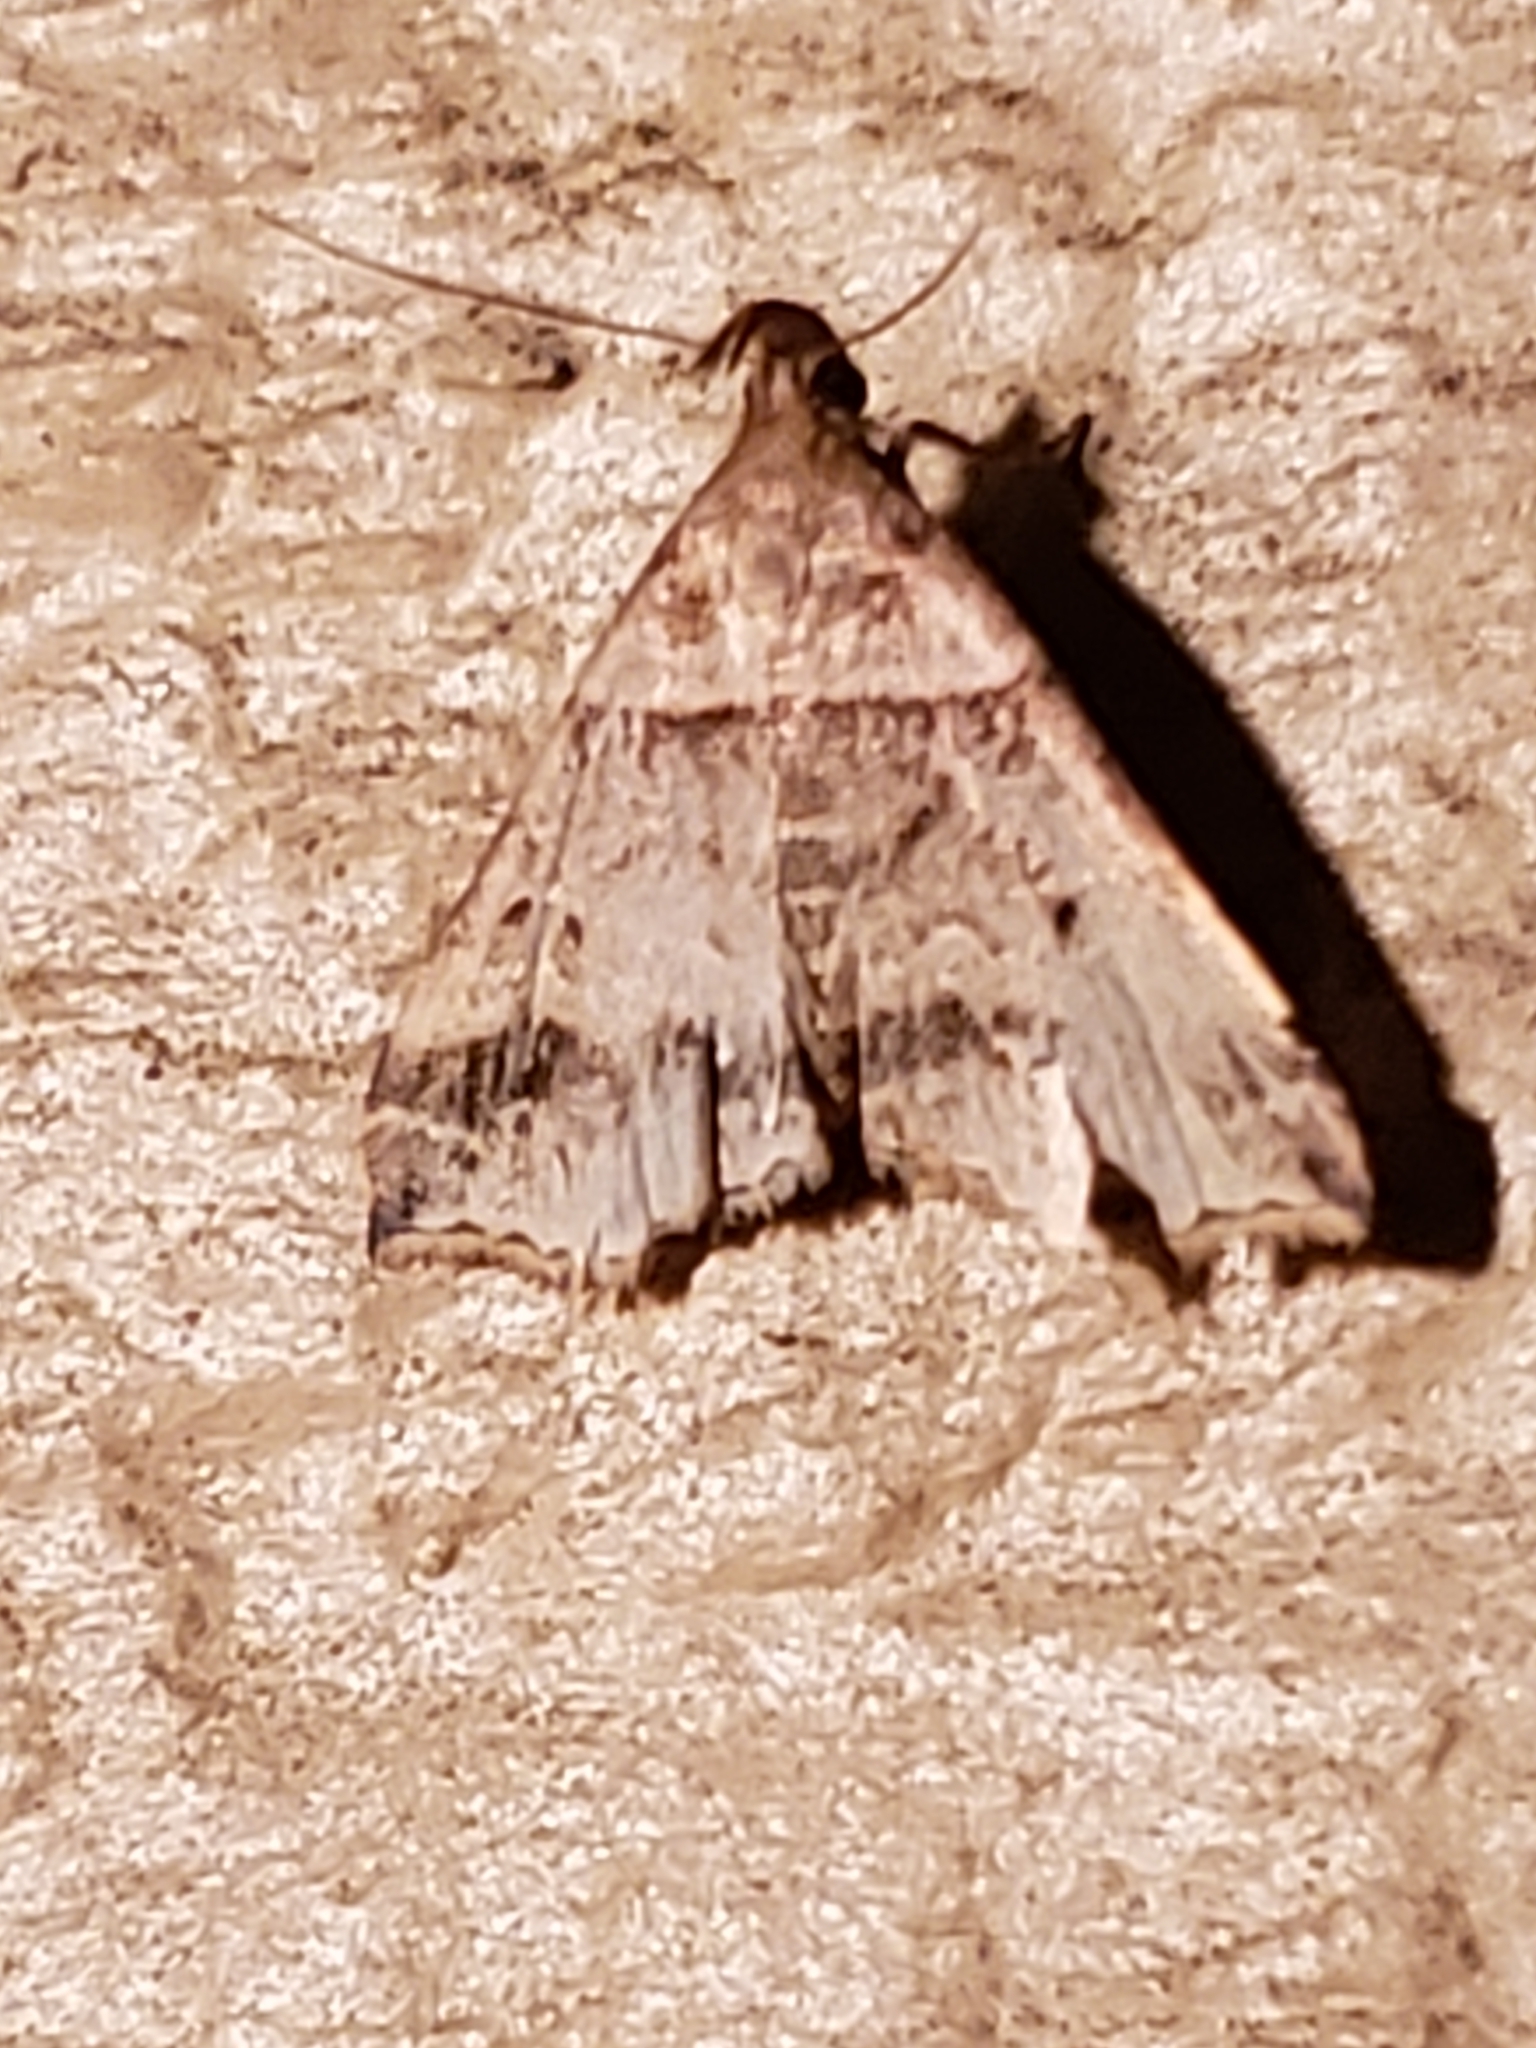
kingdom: Animalia
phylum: Arthropoda
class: Insecta
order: Lepidoptera
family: Erebidae
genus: Phaeolita
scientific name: Phaeolita pyramusalis
